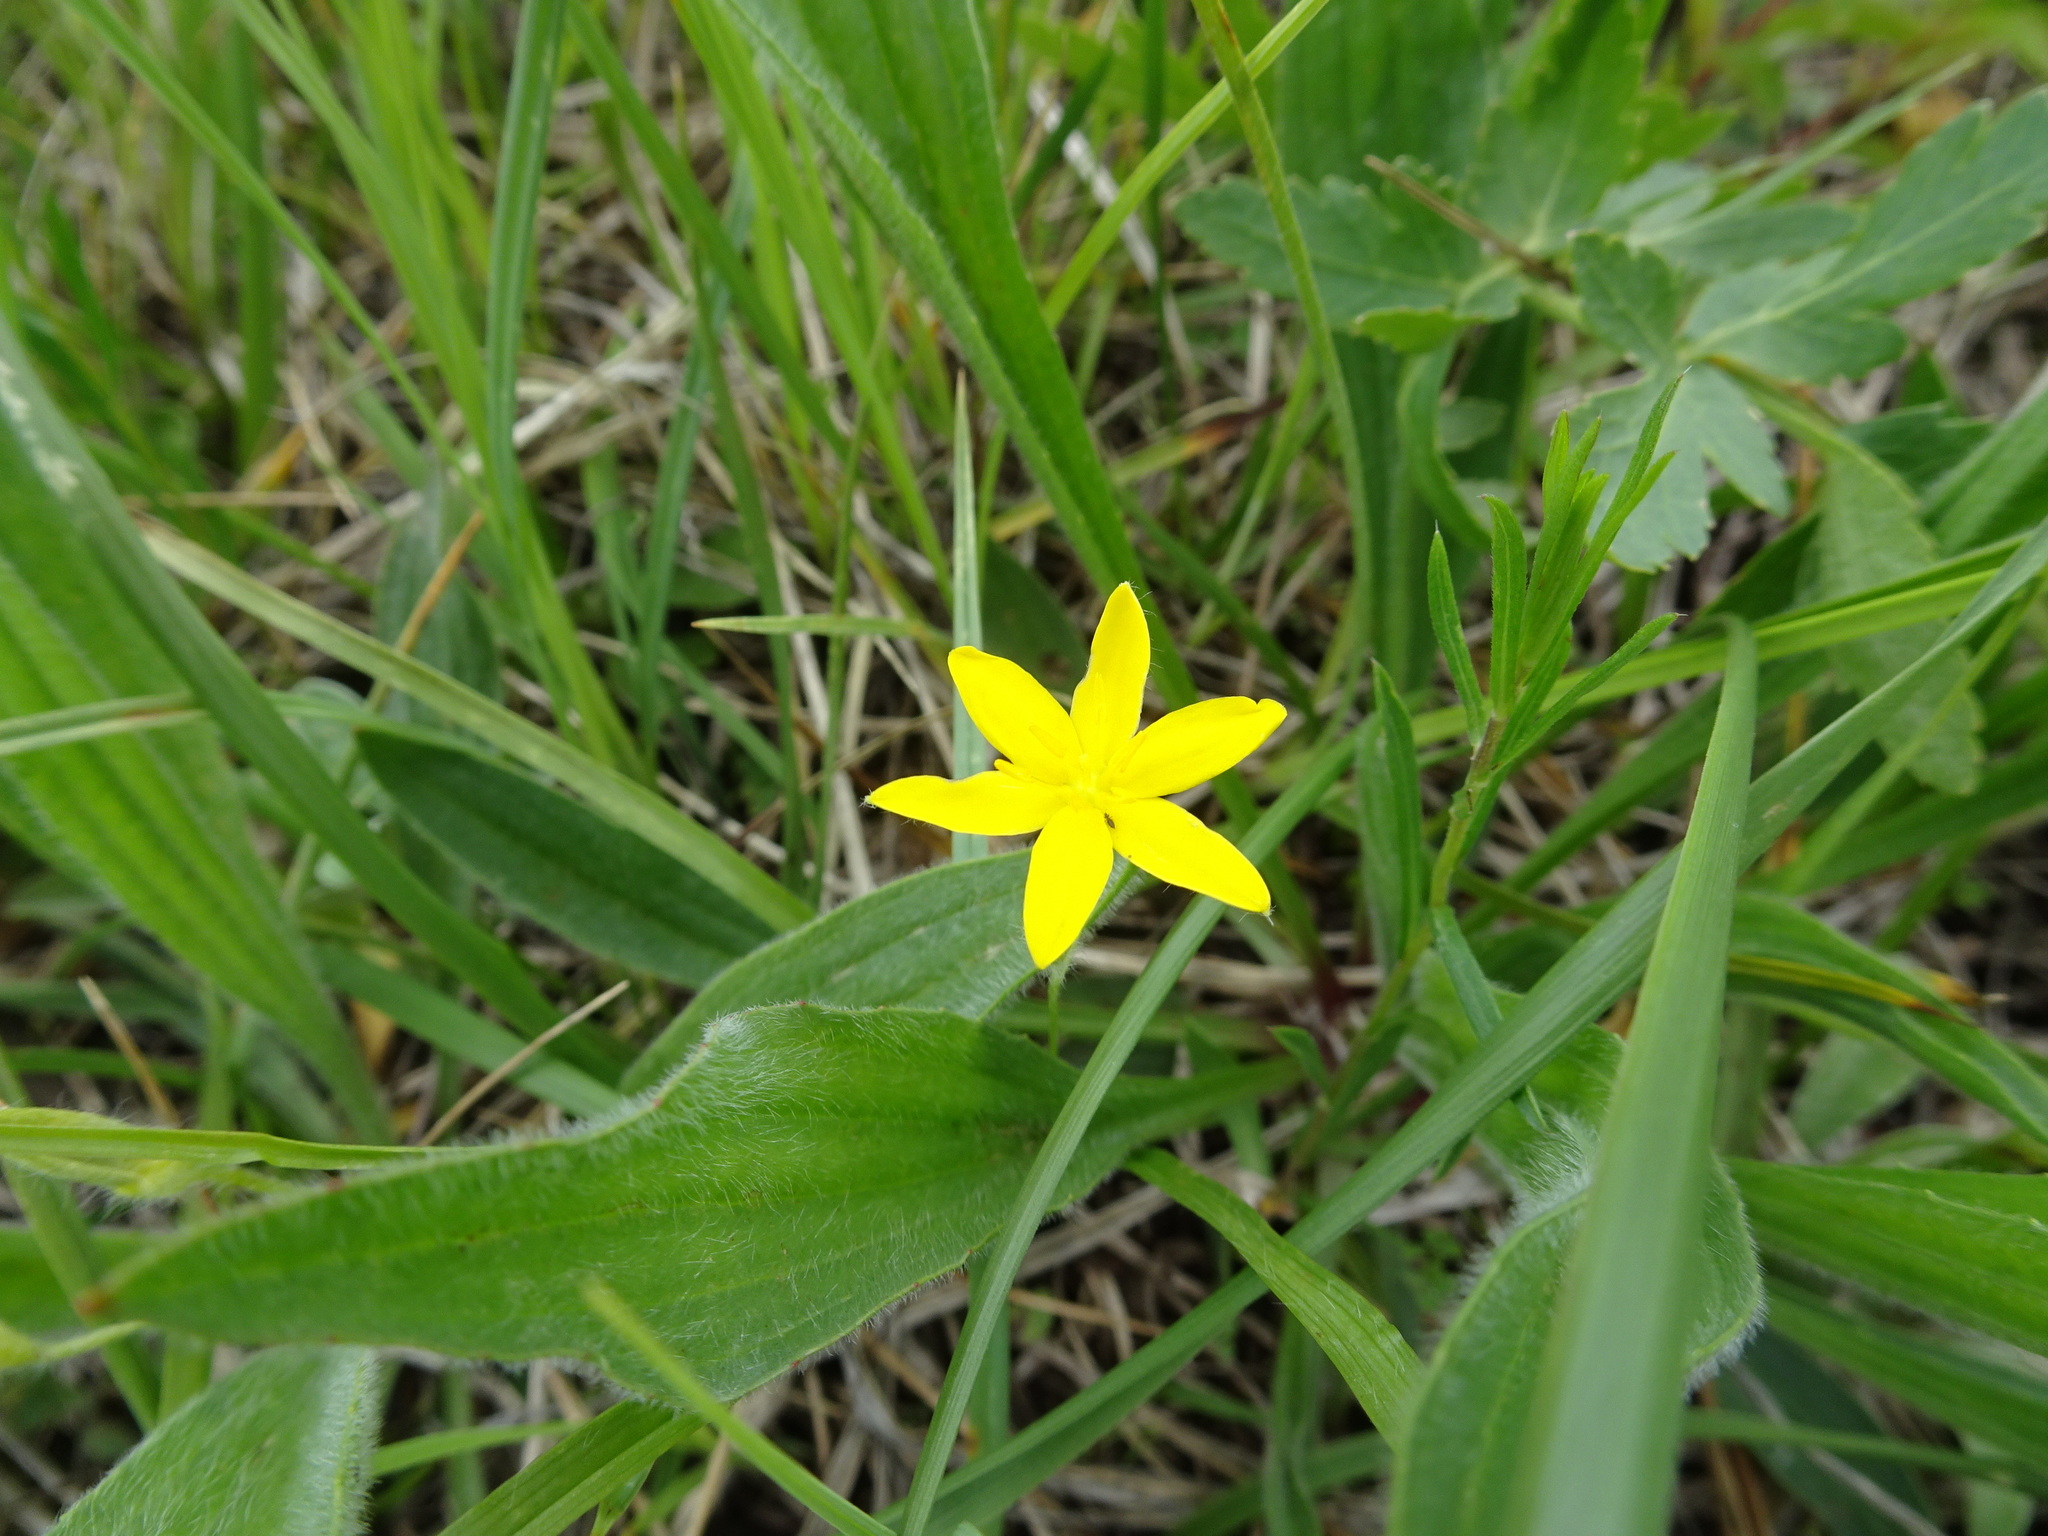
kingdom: Plantae
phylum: Tracheophyta
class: Liliopsida
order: Asparagales
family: Hypoxidaceae
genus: Hypoxis
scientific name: Hypoxis hirsuta
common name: Common goldstar
